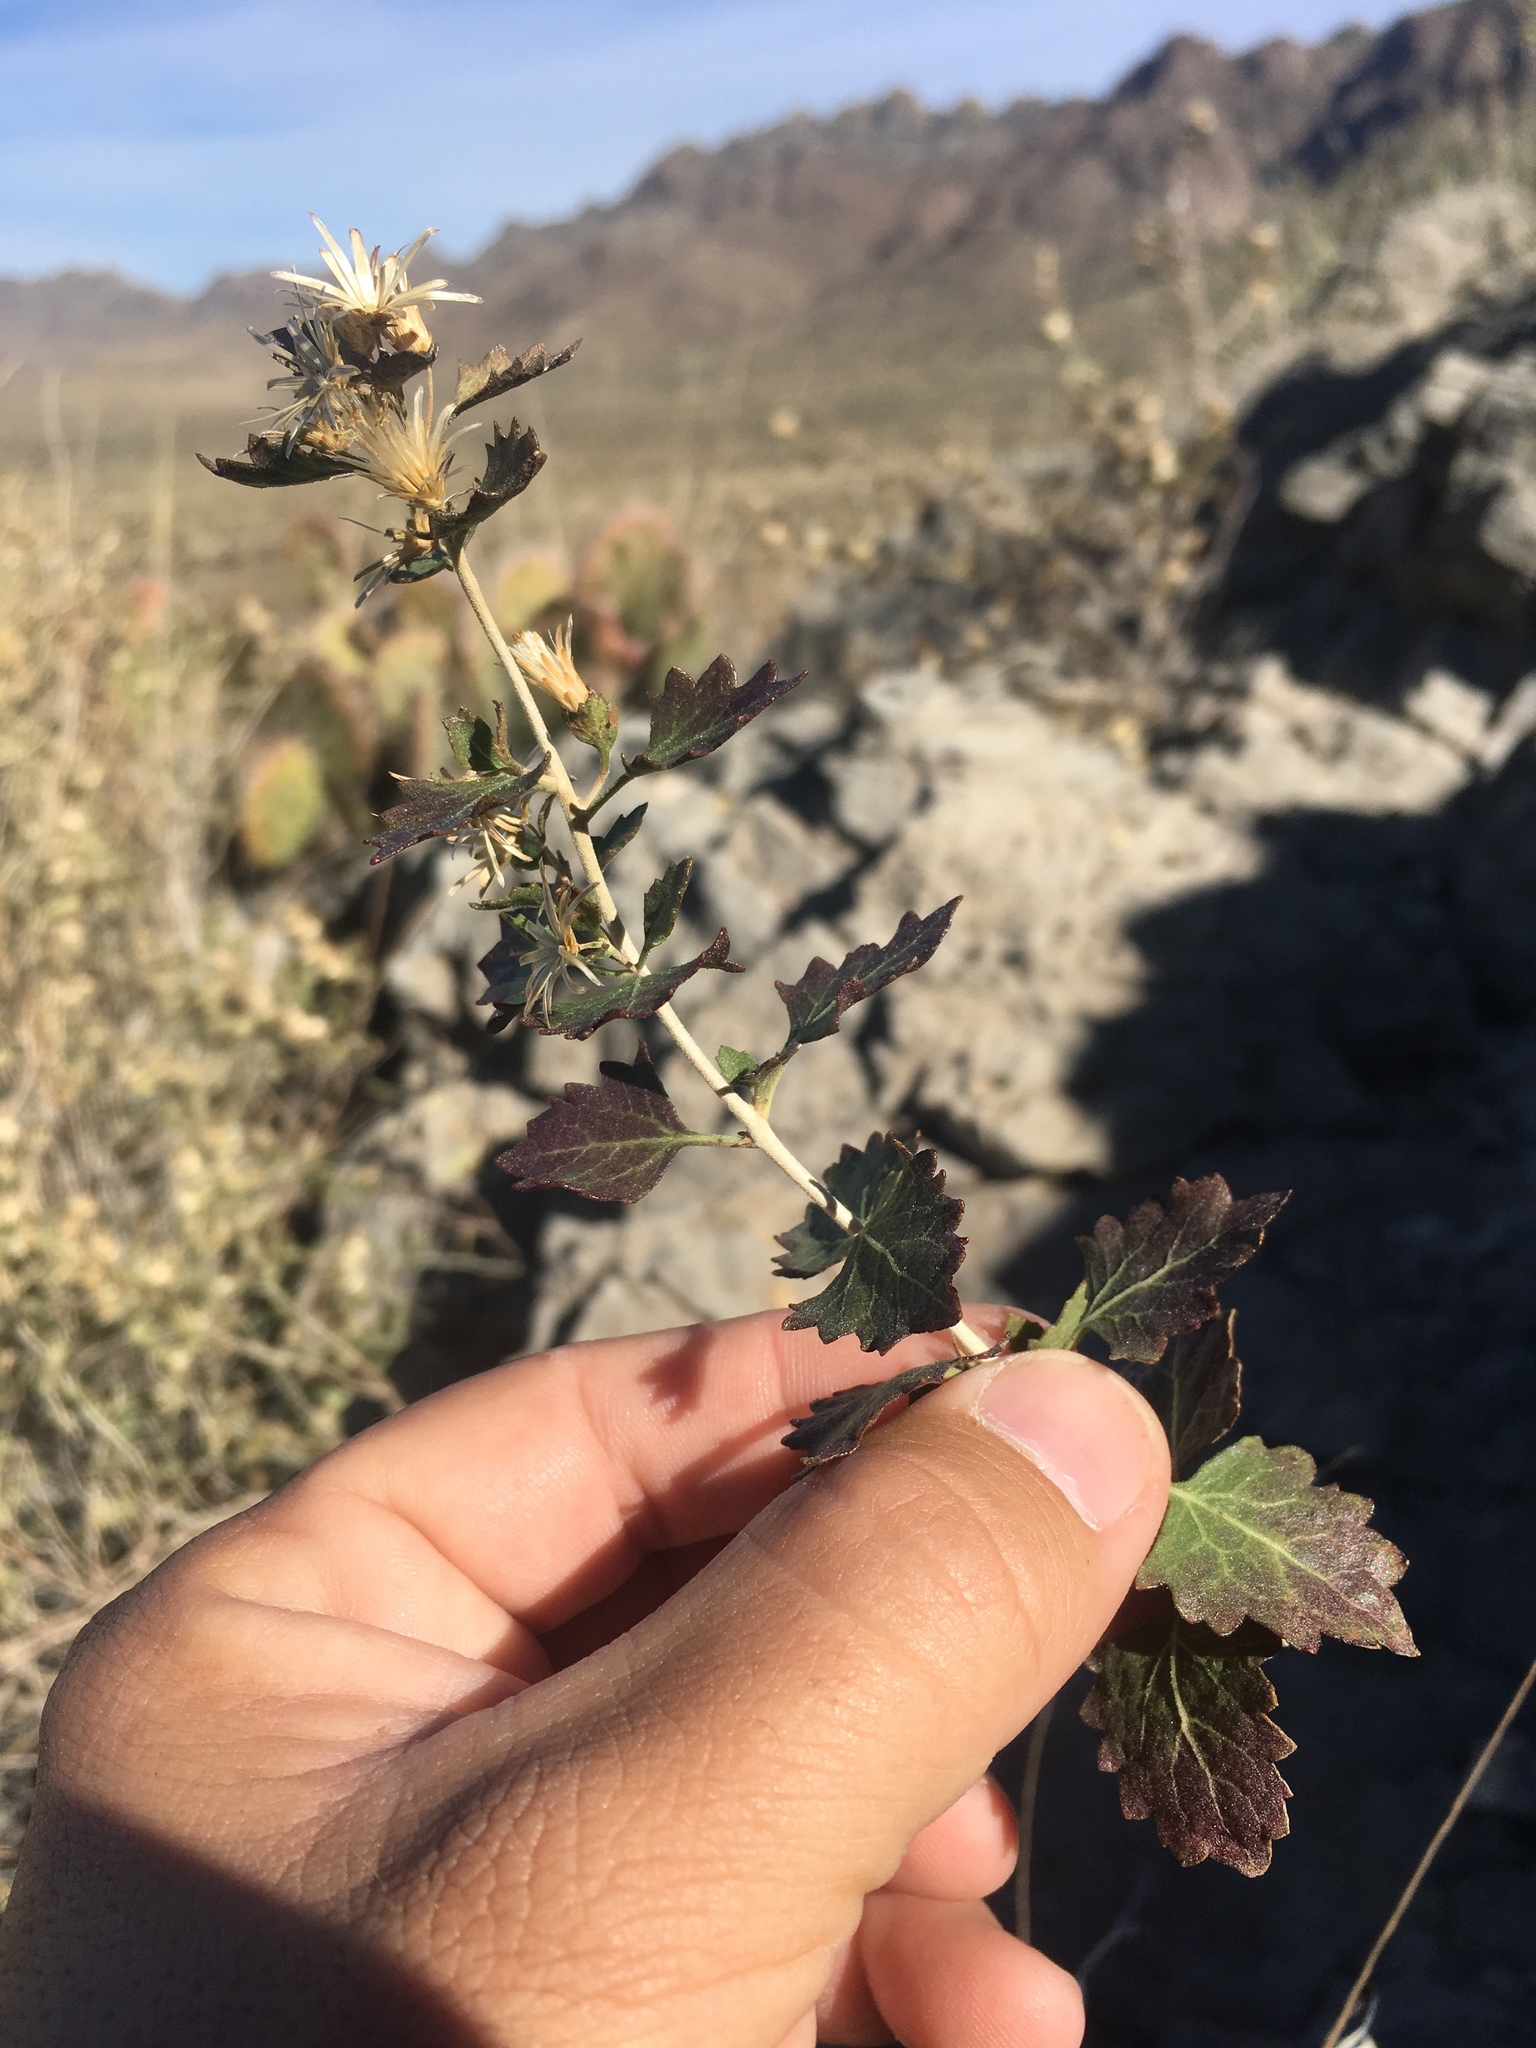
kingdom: Plantae
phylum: Tracheophyta
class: Magnoliopsida
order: Asterales
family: Asteraceae
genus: Brickellia
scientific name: Brickellia baccharidea
